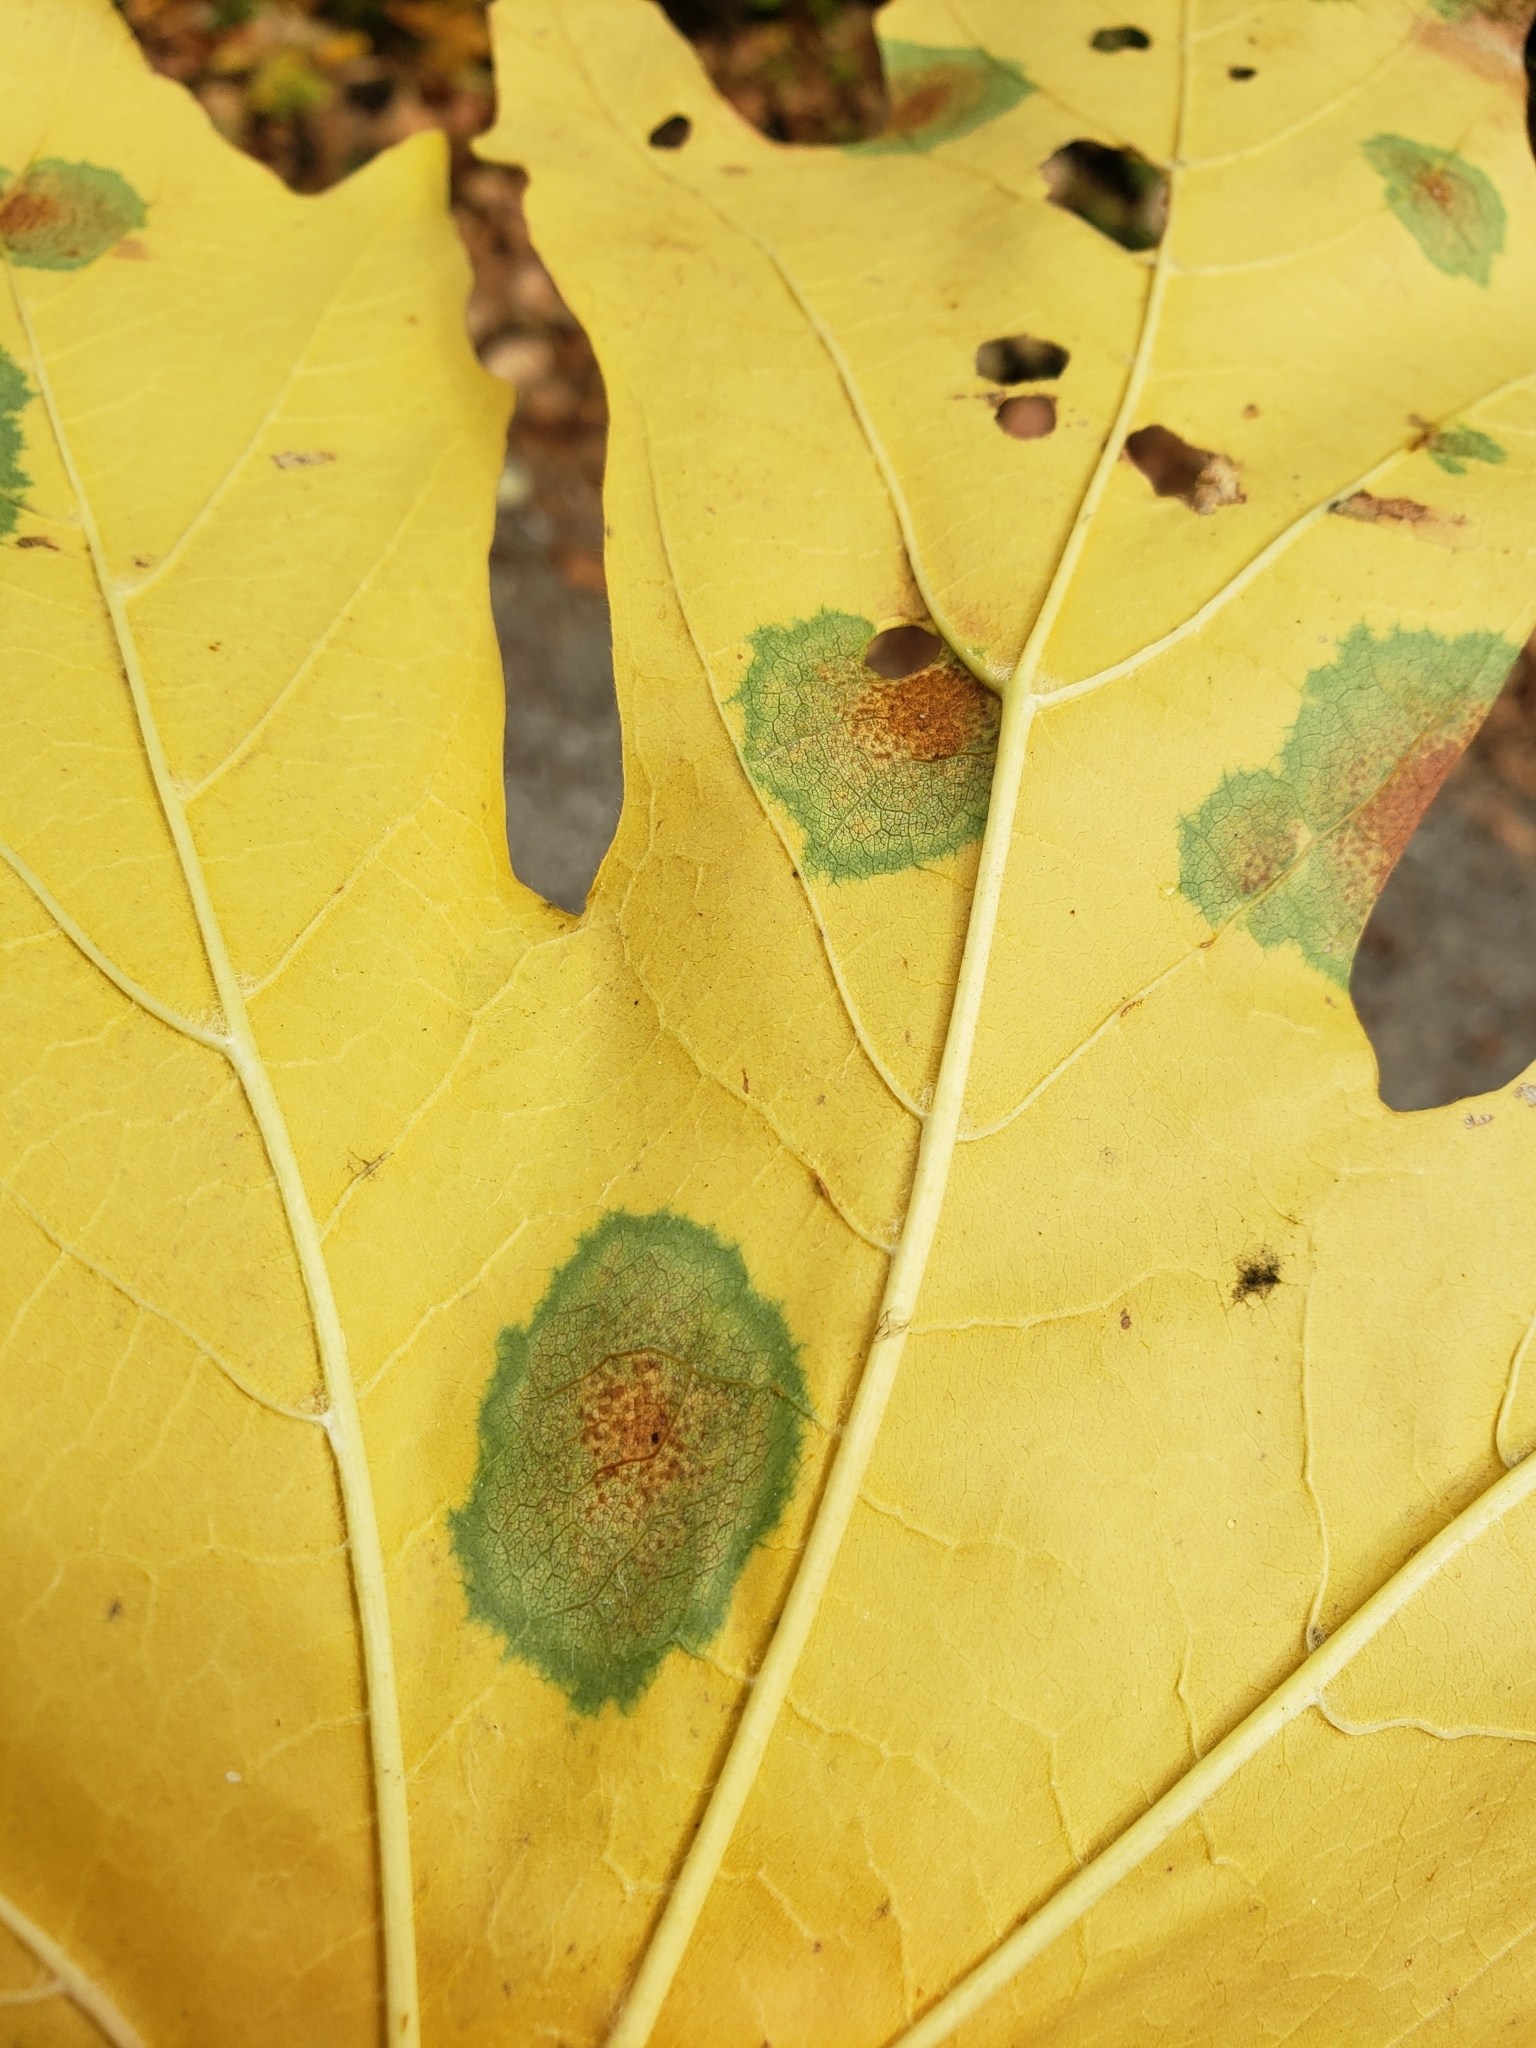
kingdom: Fungi
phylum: Ascomycota
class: Leotiomycetes
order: Rhytismatales
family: Rhytismataceae
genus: Rhytisma
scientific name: Rhytisma punctatum
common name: Speckled tar spot
